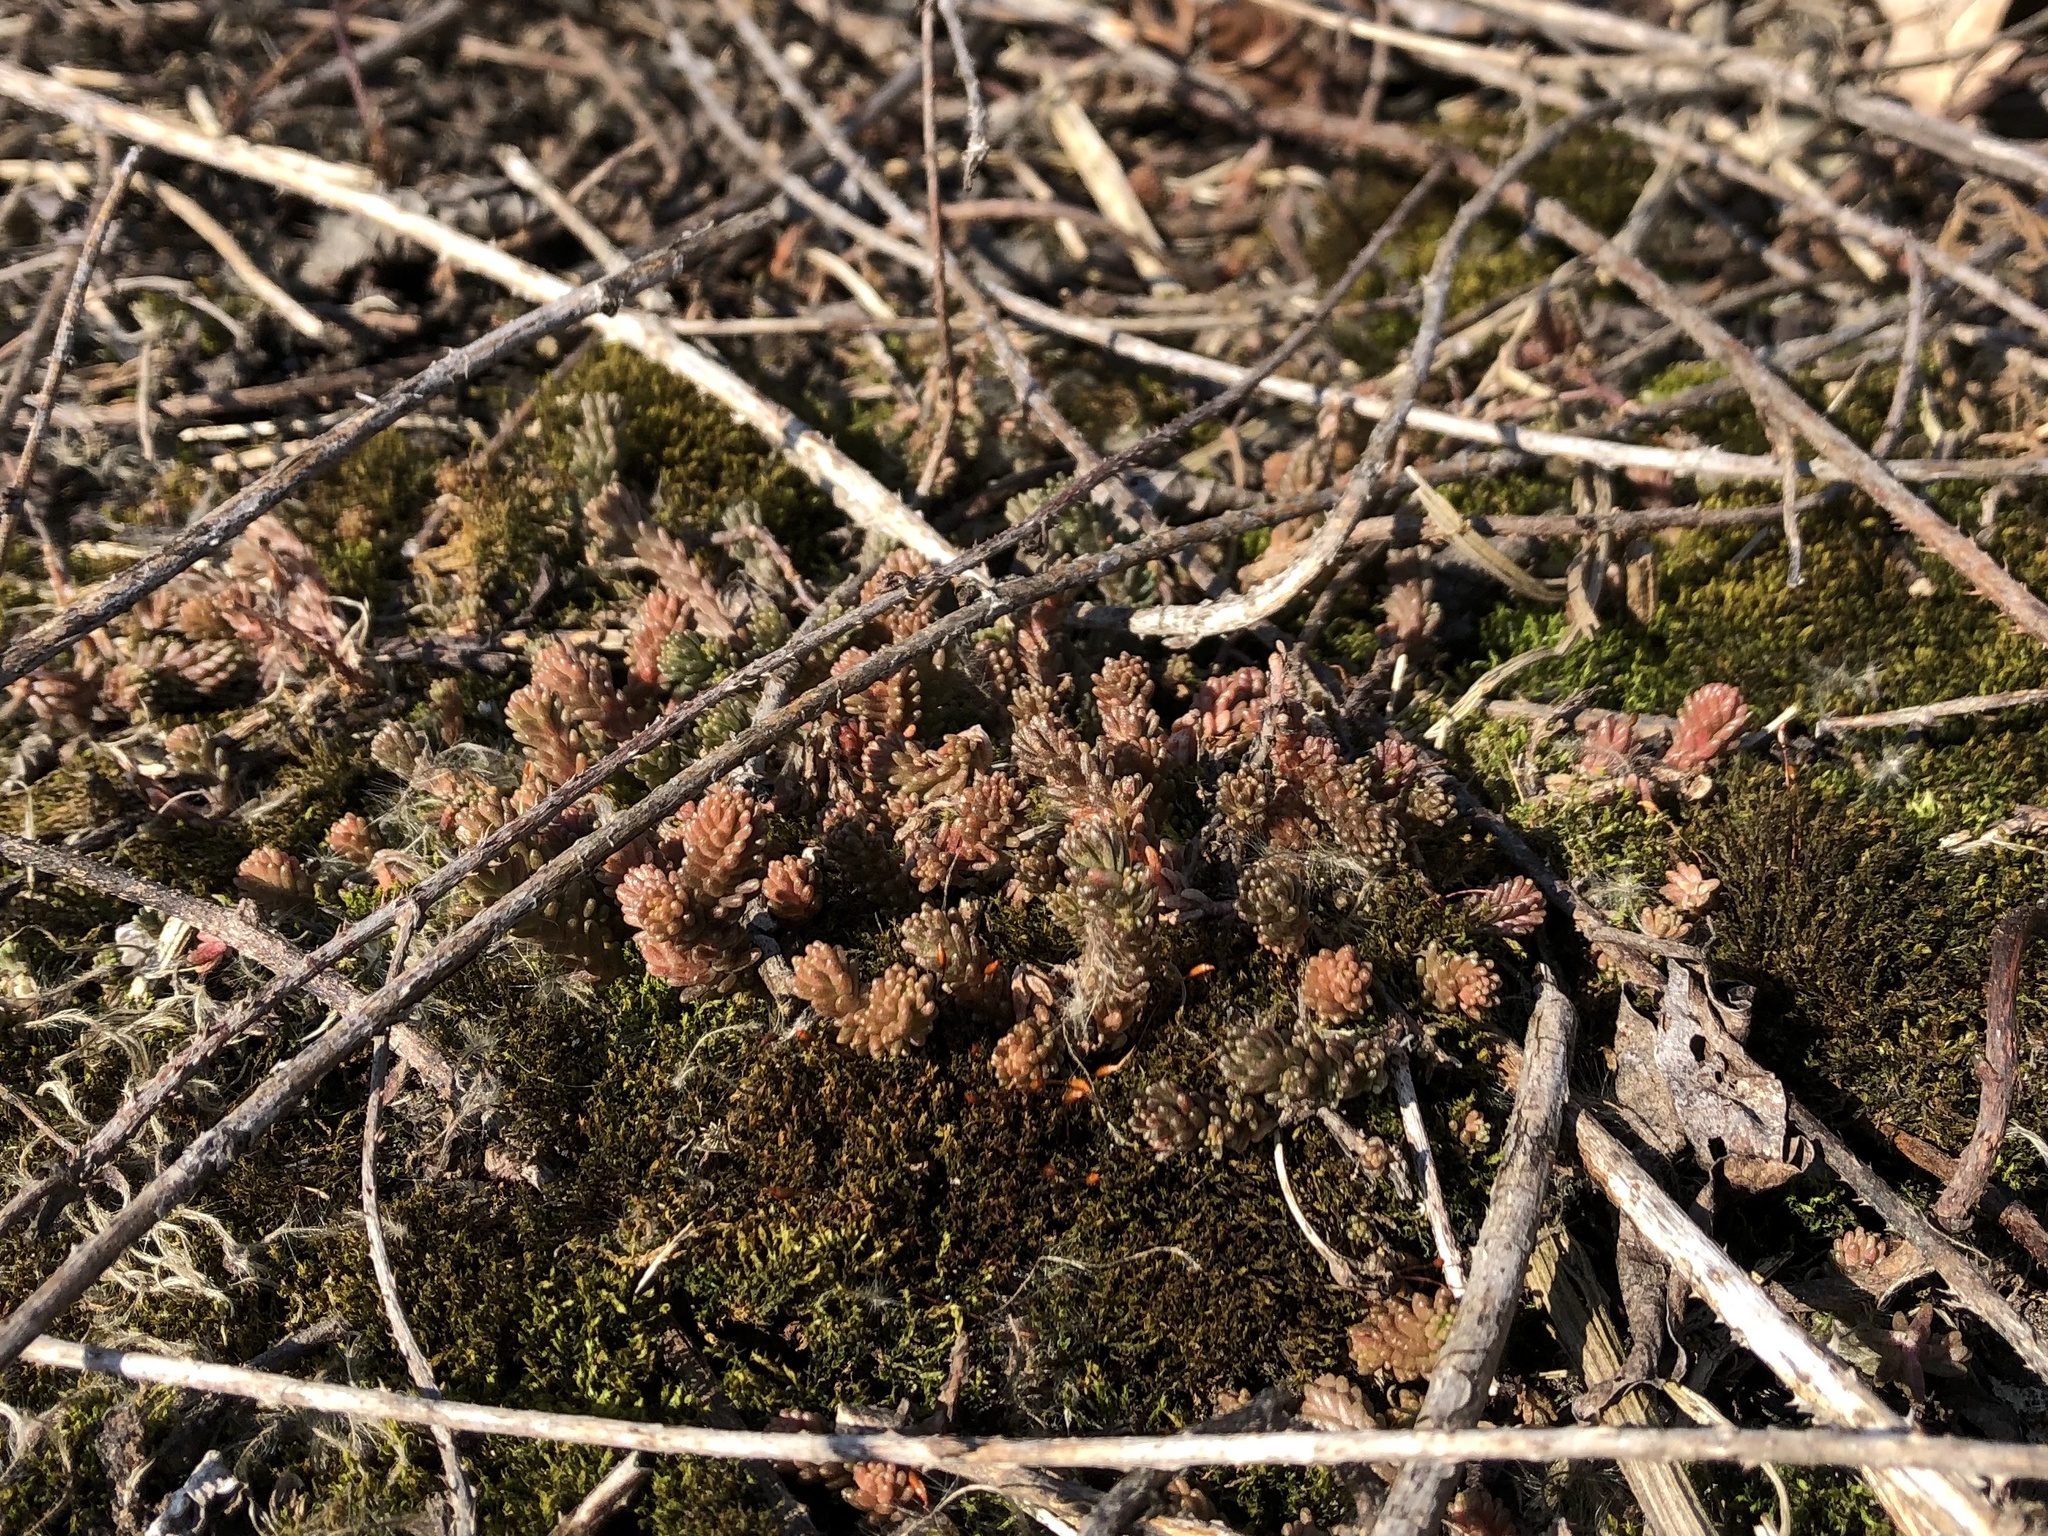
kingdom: Plantae
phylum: Tracheophyta
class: Magnoliopsida
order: Saxifragales
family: Crassulaceae
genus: Sedum
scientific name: Sedum sexangulare
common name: Tasteless stonecrop
